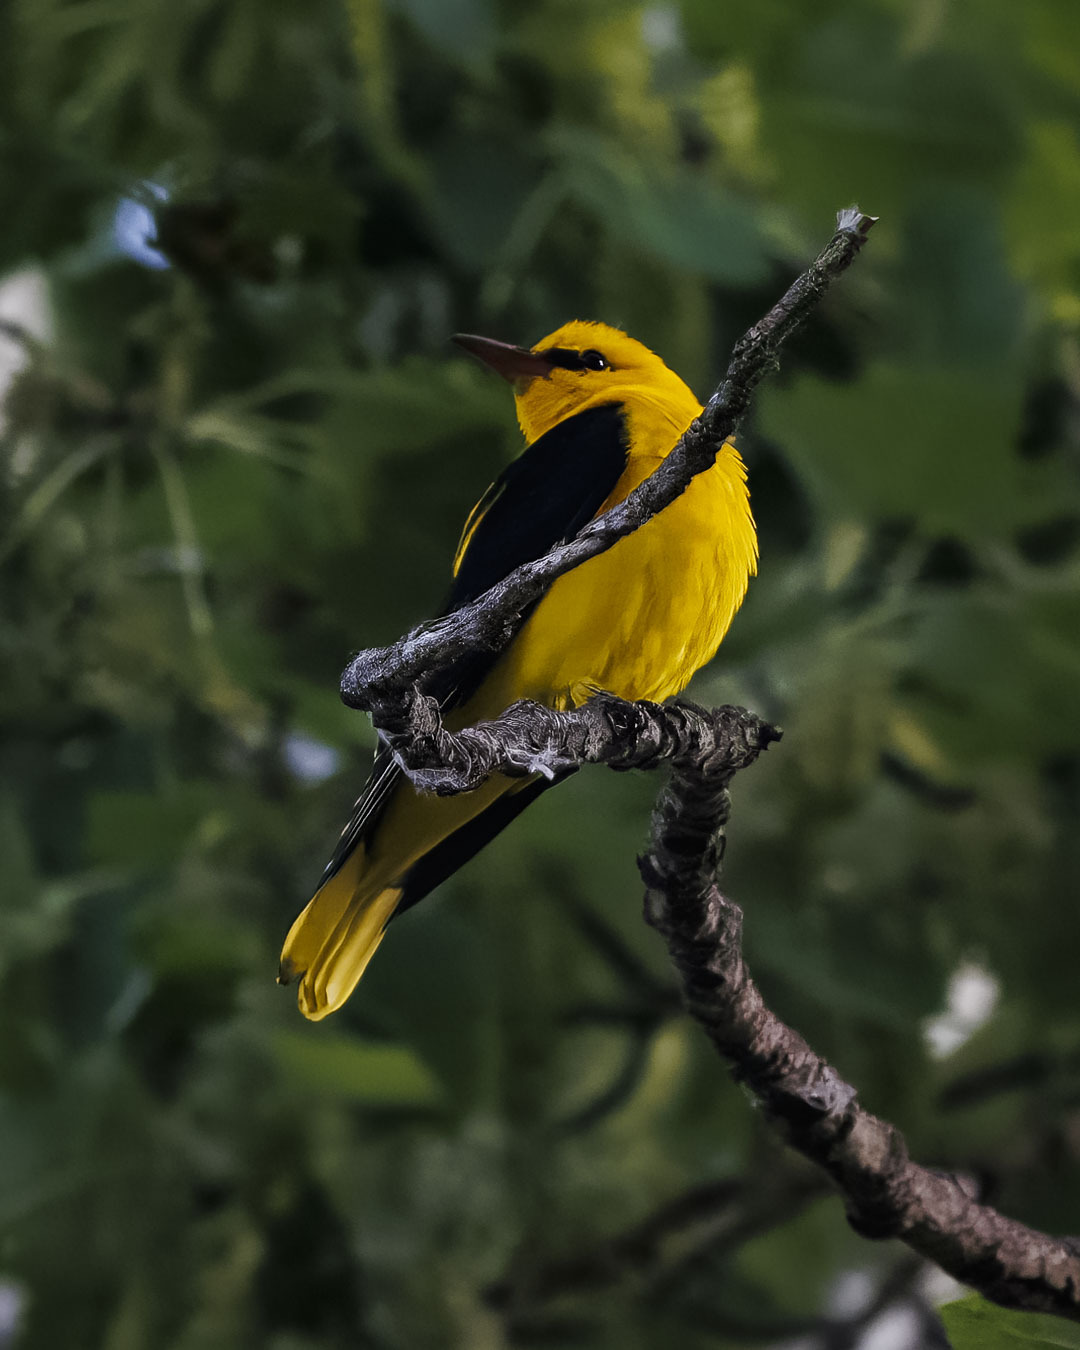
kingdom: Animalia
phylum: Chordata
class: Aves
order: Passeriformes
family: Oriolidae
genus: Oriolus
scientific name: Oriolus oriolus
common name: Eurasian golden oriole
